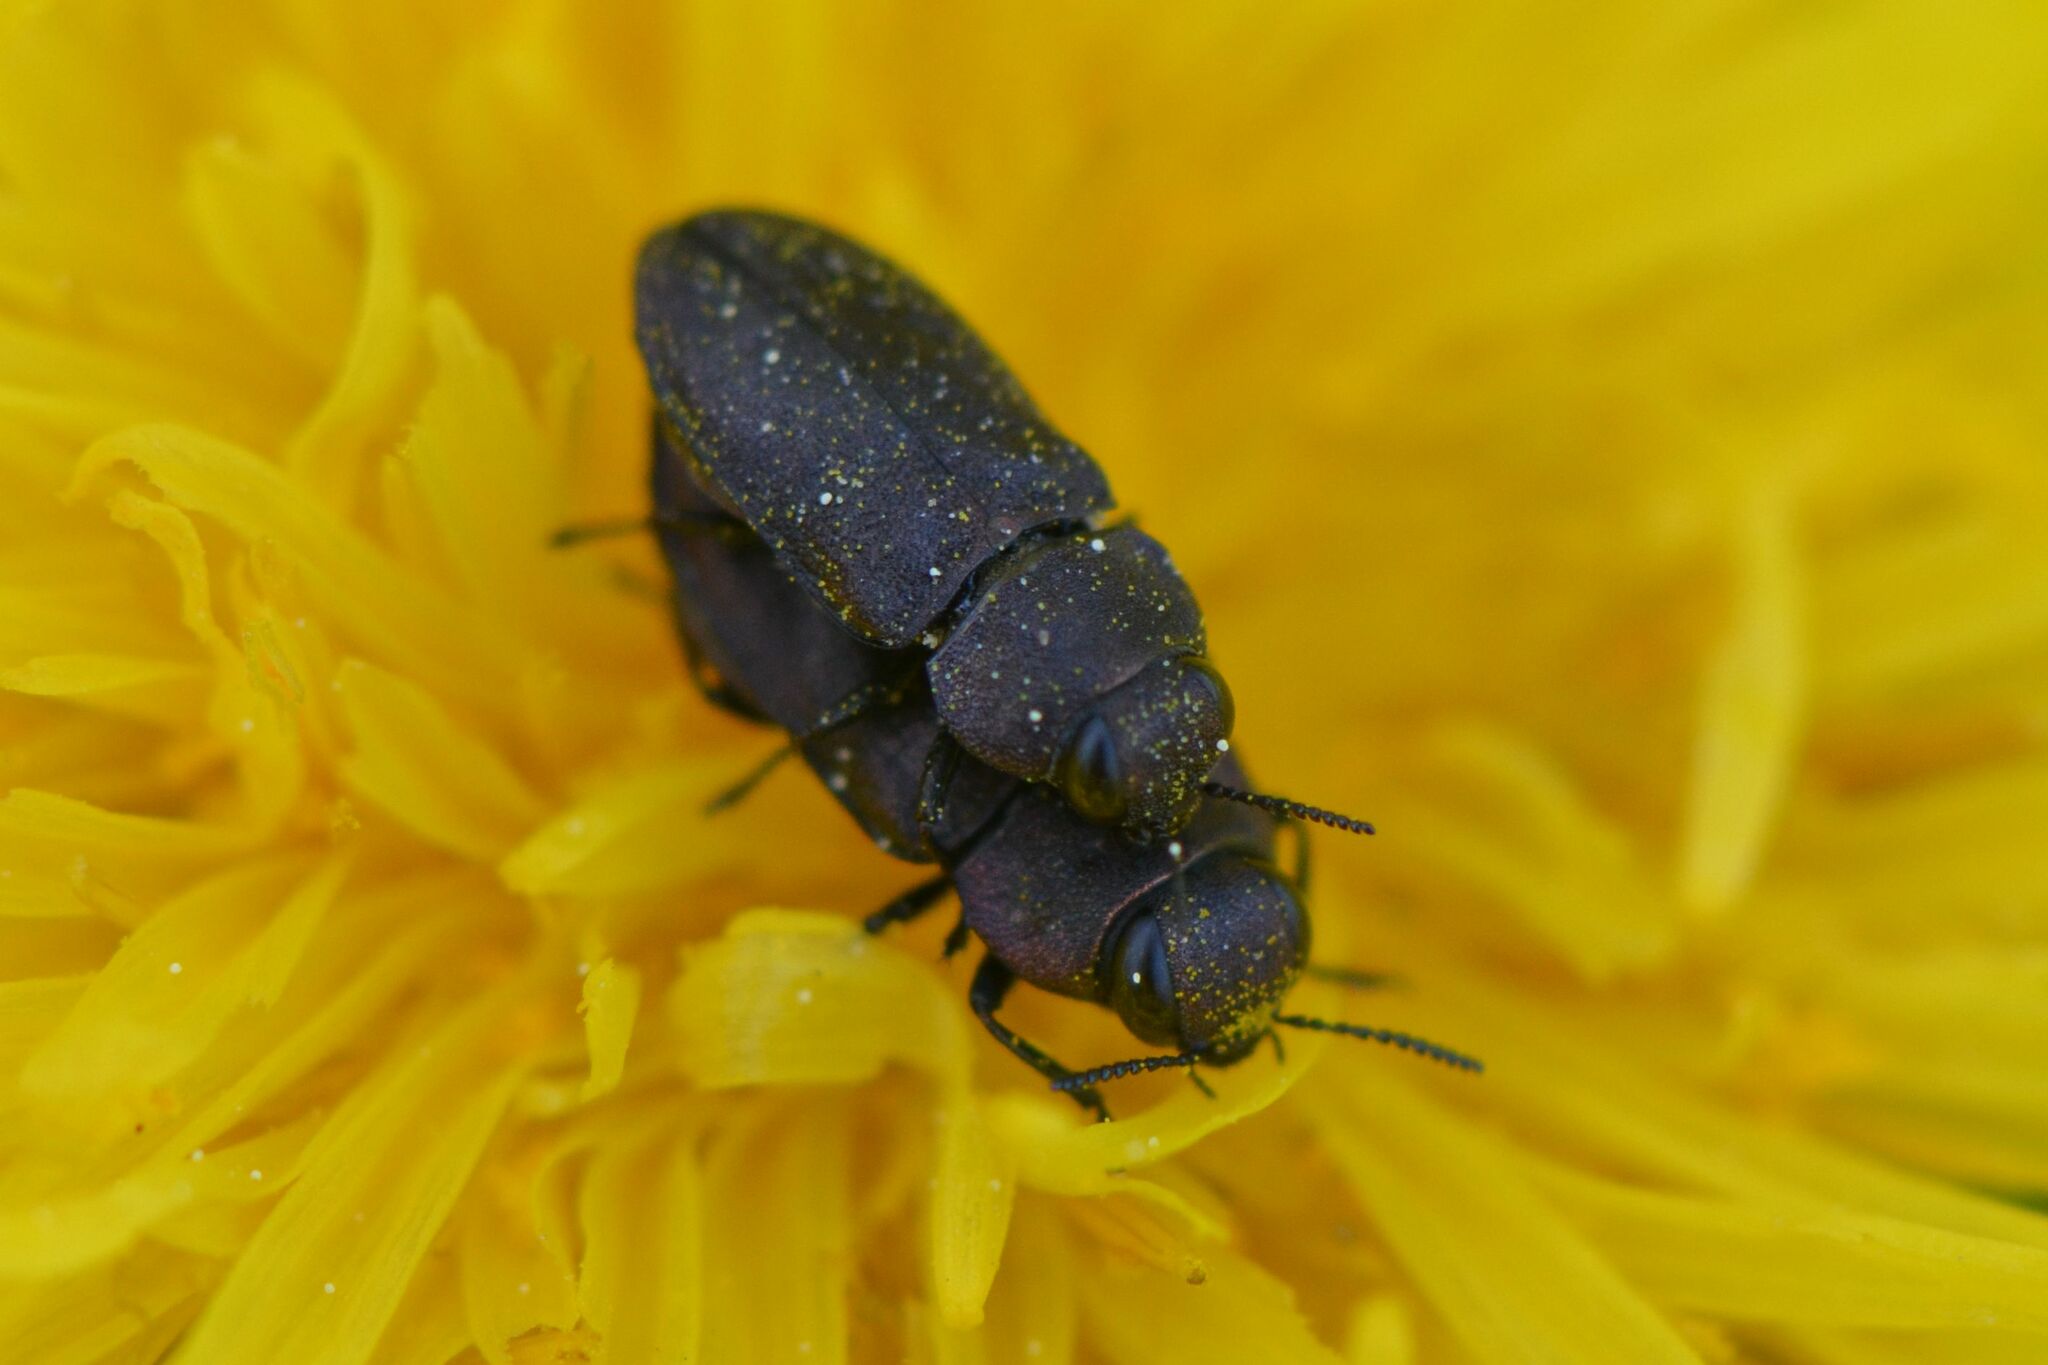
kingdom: Animalia
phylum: Arthropoda
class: Insecta
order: Coleoptera
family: Buprestidae
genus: Anthaxia
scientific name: Anthaxia helvetica
